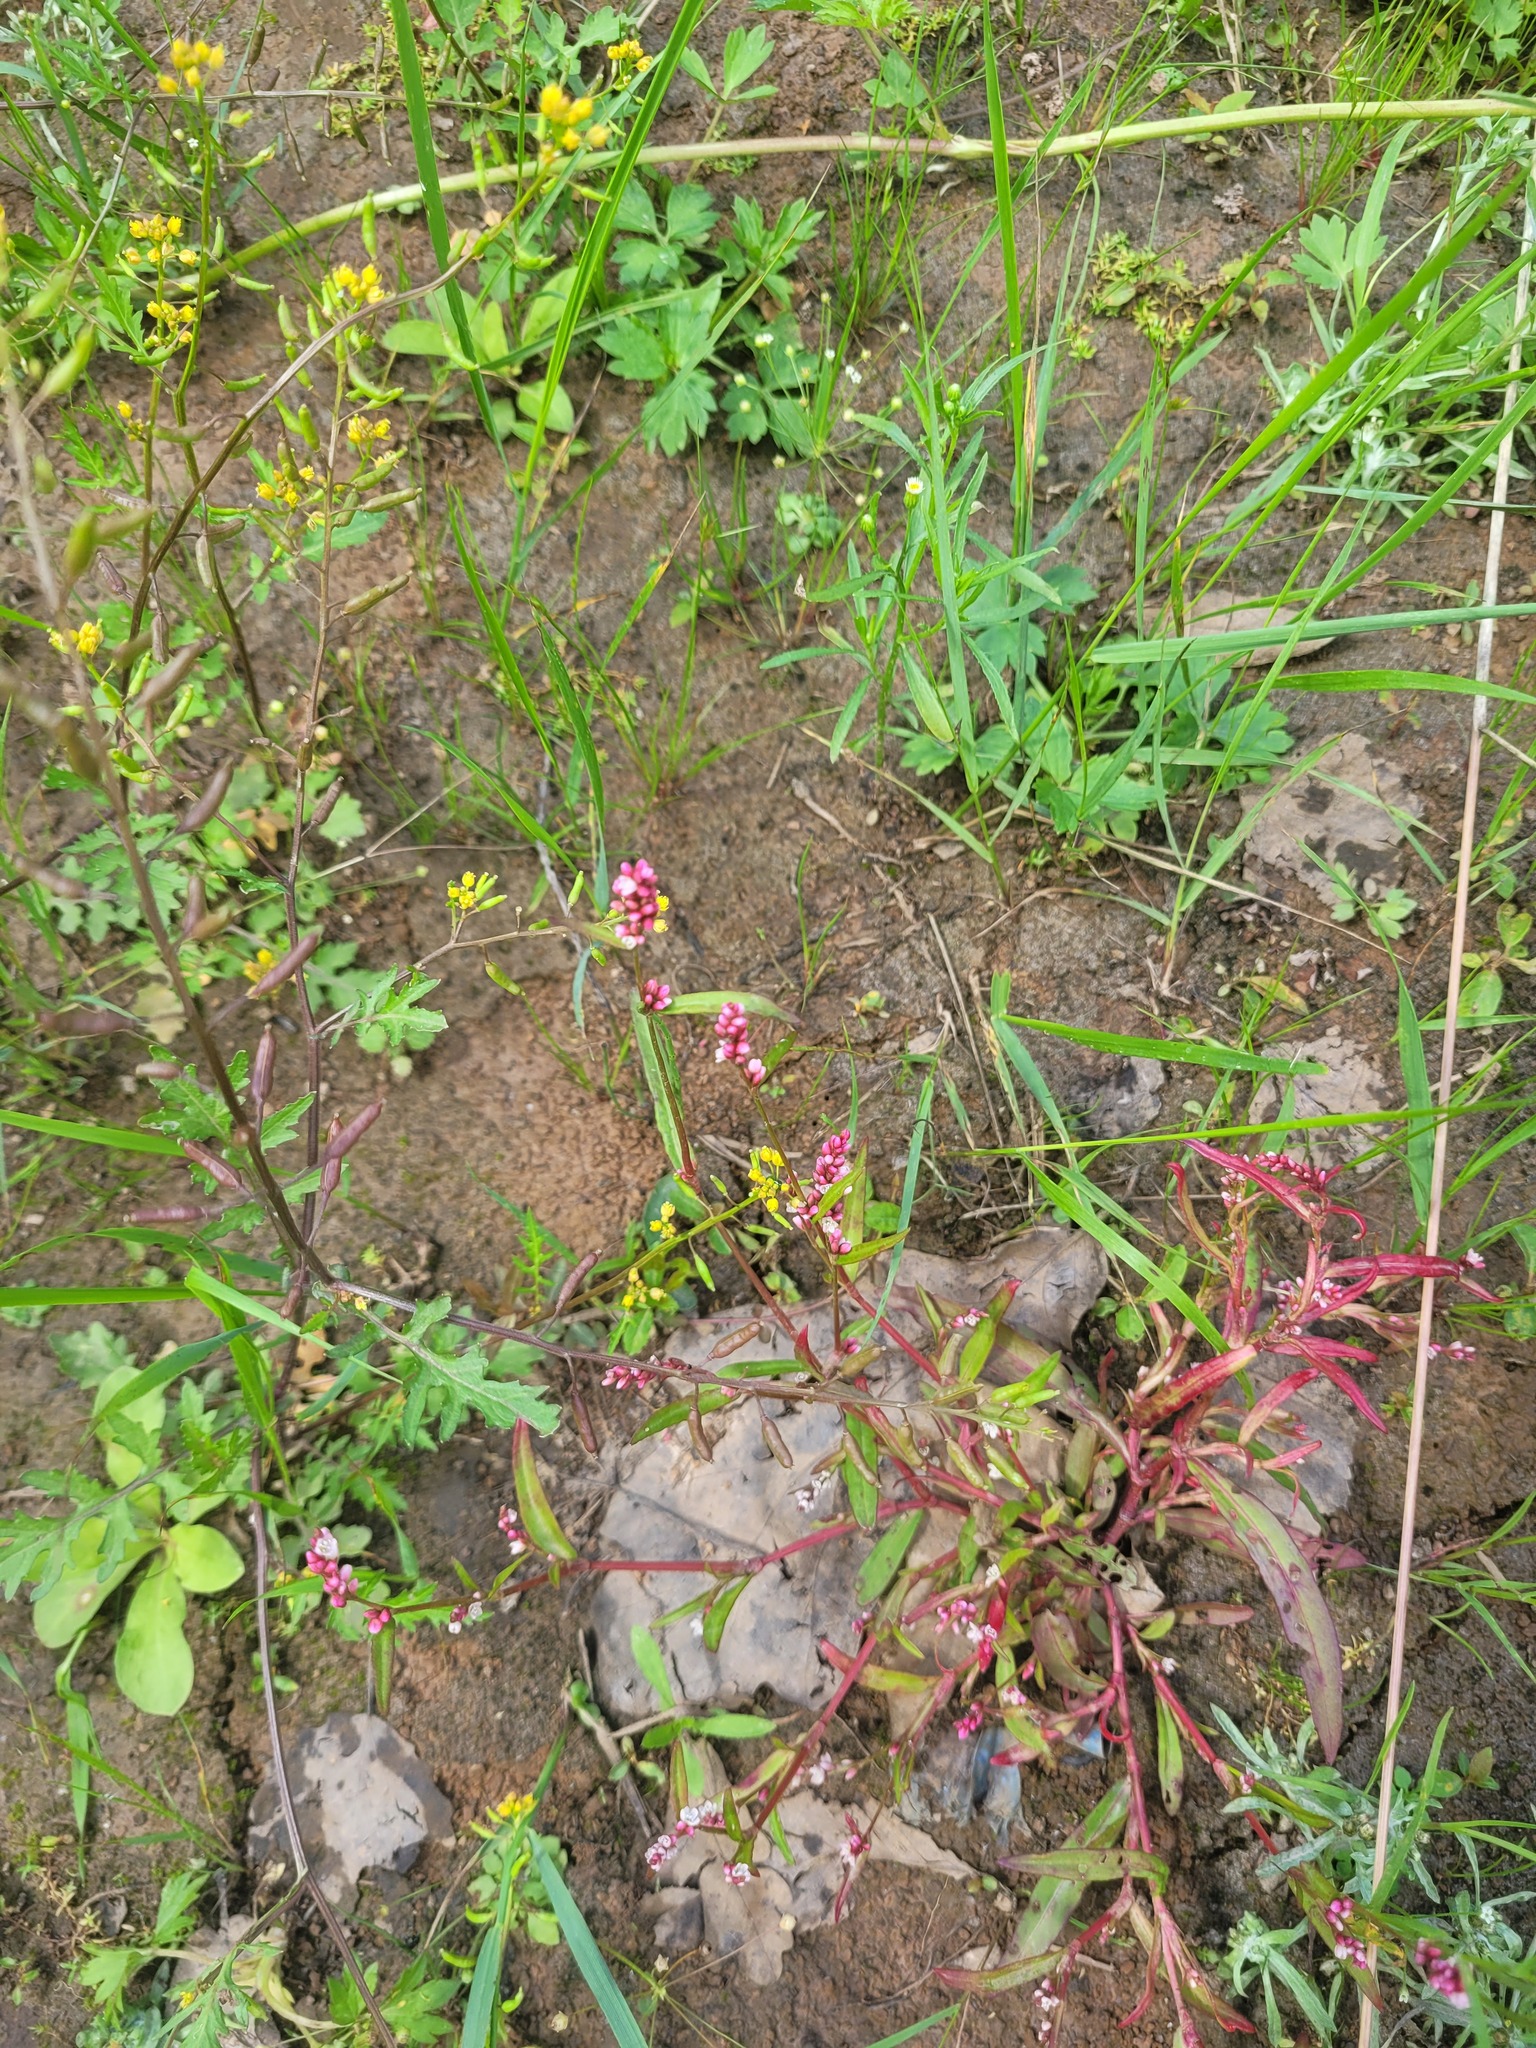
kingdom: Plantae
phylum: Tracheophyta
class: Magnoliopsida
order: Caryophyllales
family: Polygonaceae
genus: Persicaria
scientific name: Persicaria maculosa
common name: Redshank
